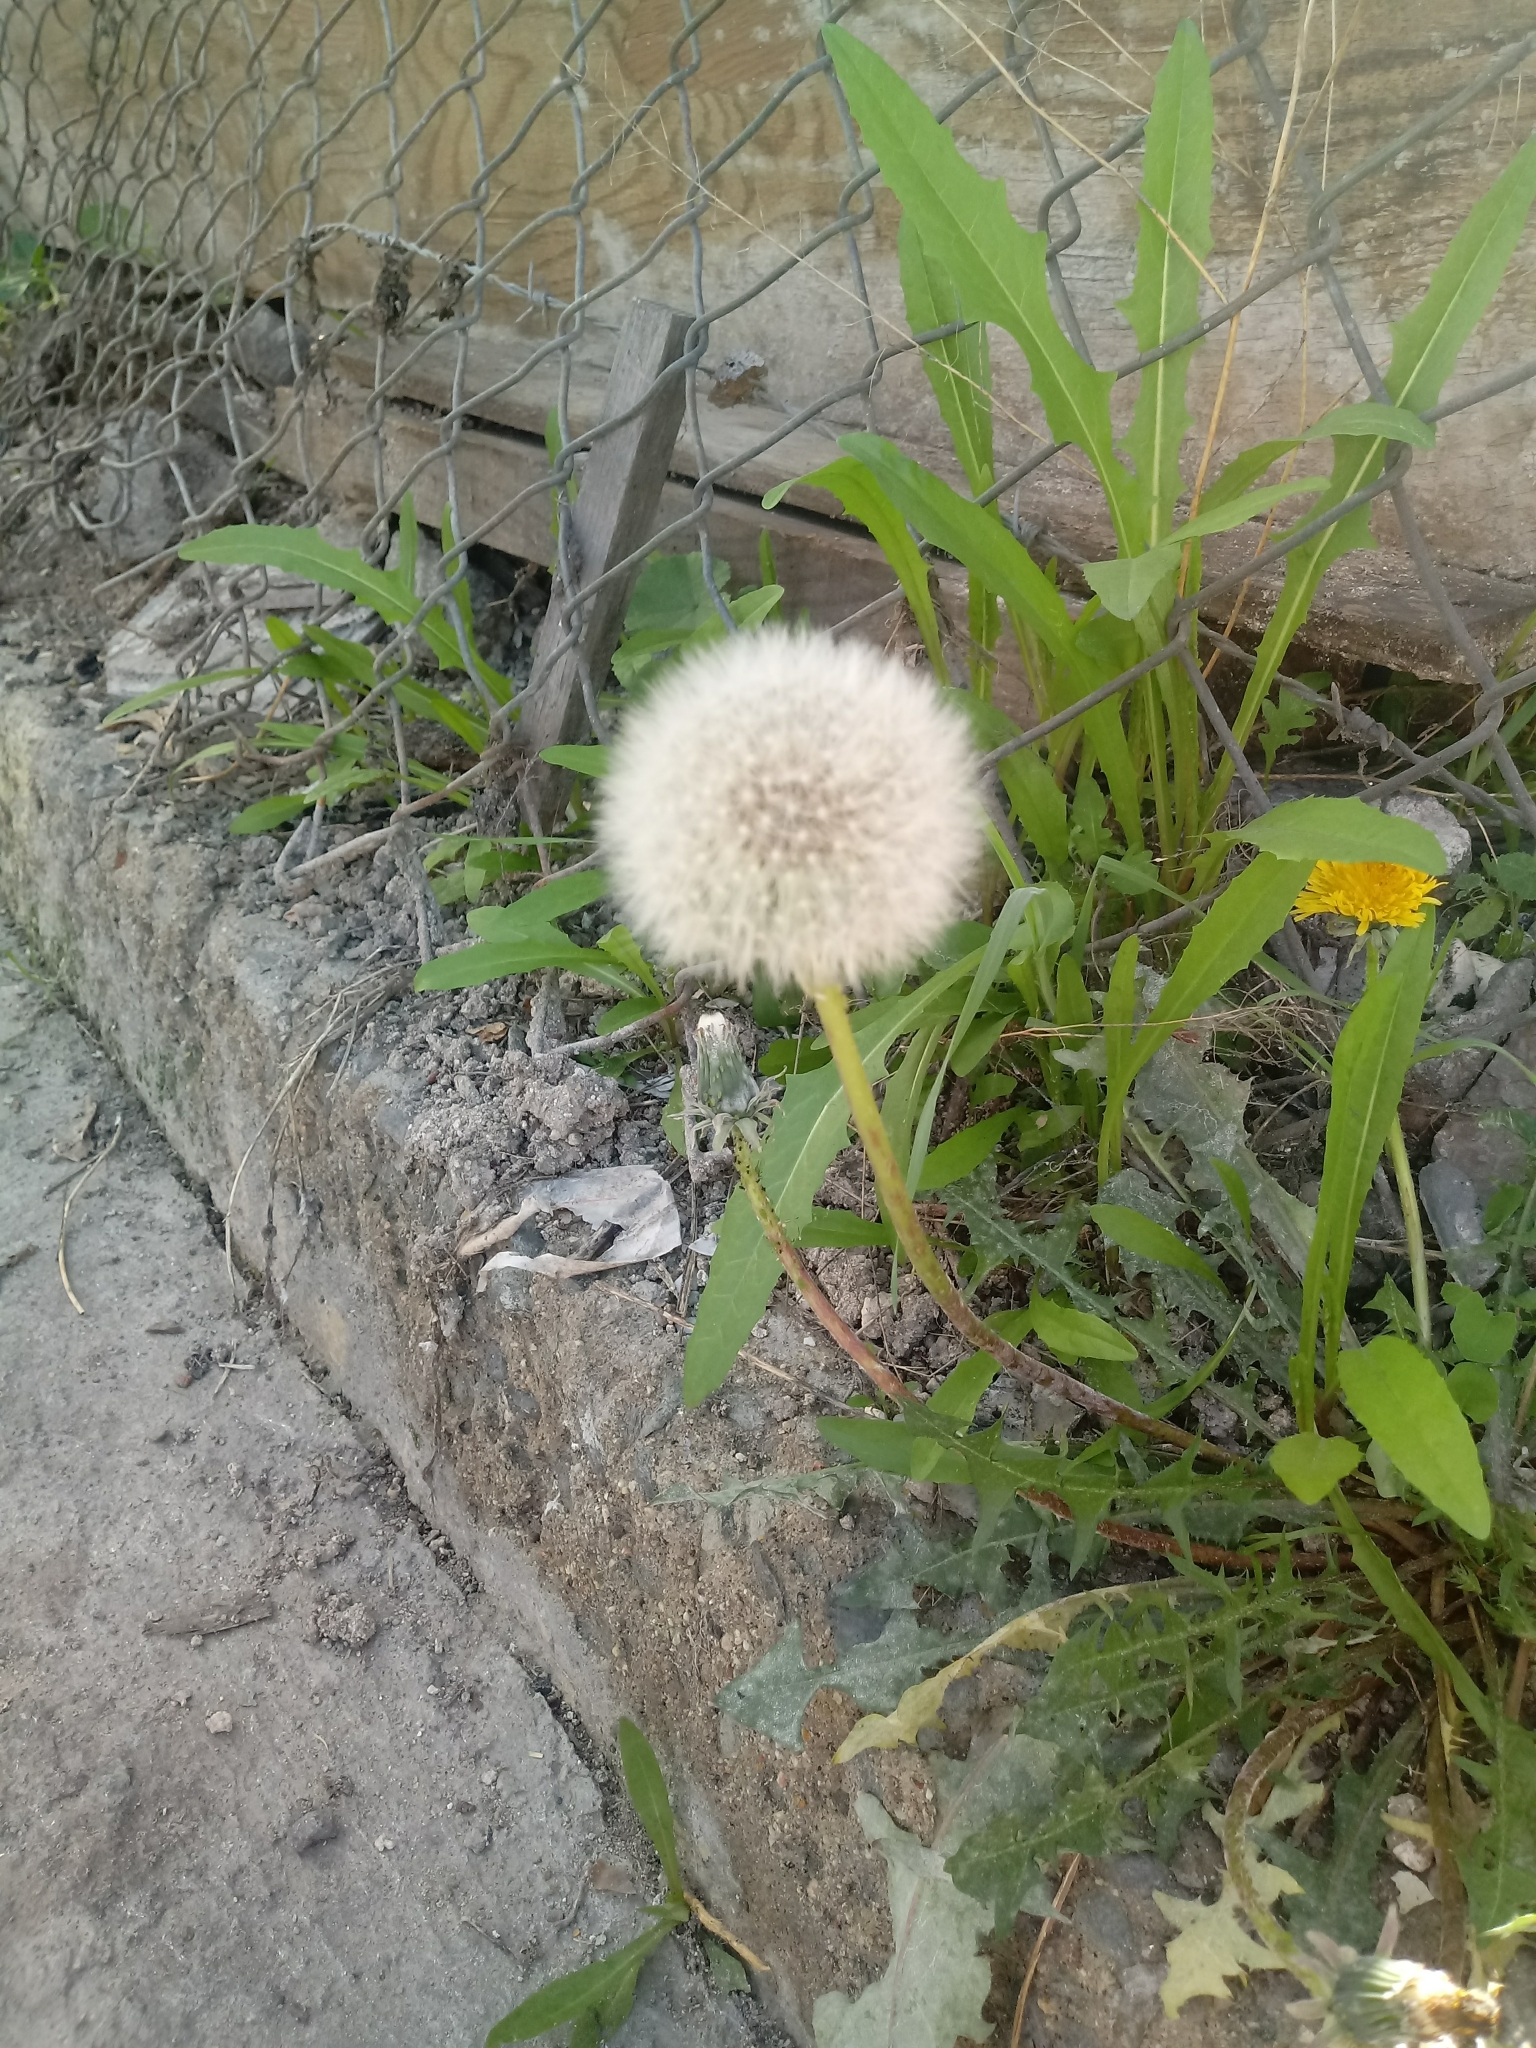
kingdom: Plantae
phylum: Tracheophyta
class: Magnoliopsida
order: Asterales
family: Asteraceae
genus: Taraxacum
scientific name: Taraxacum officinale
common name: Common dandelion
